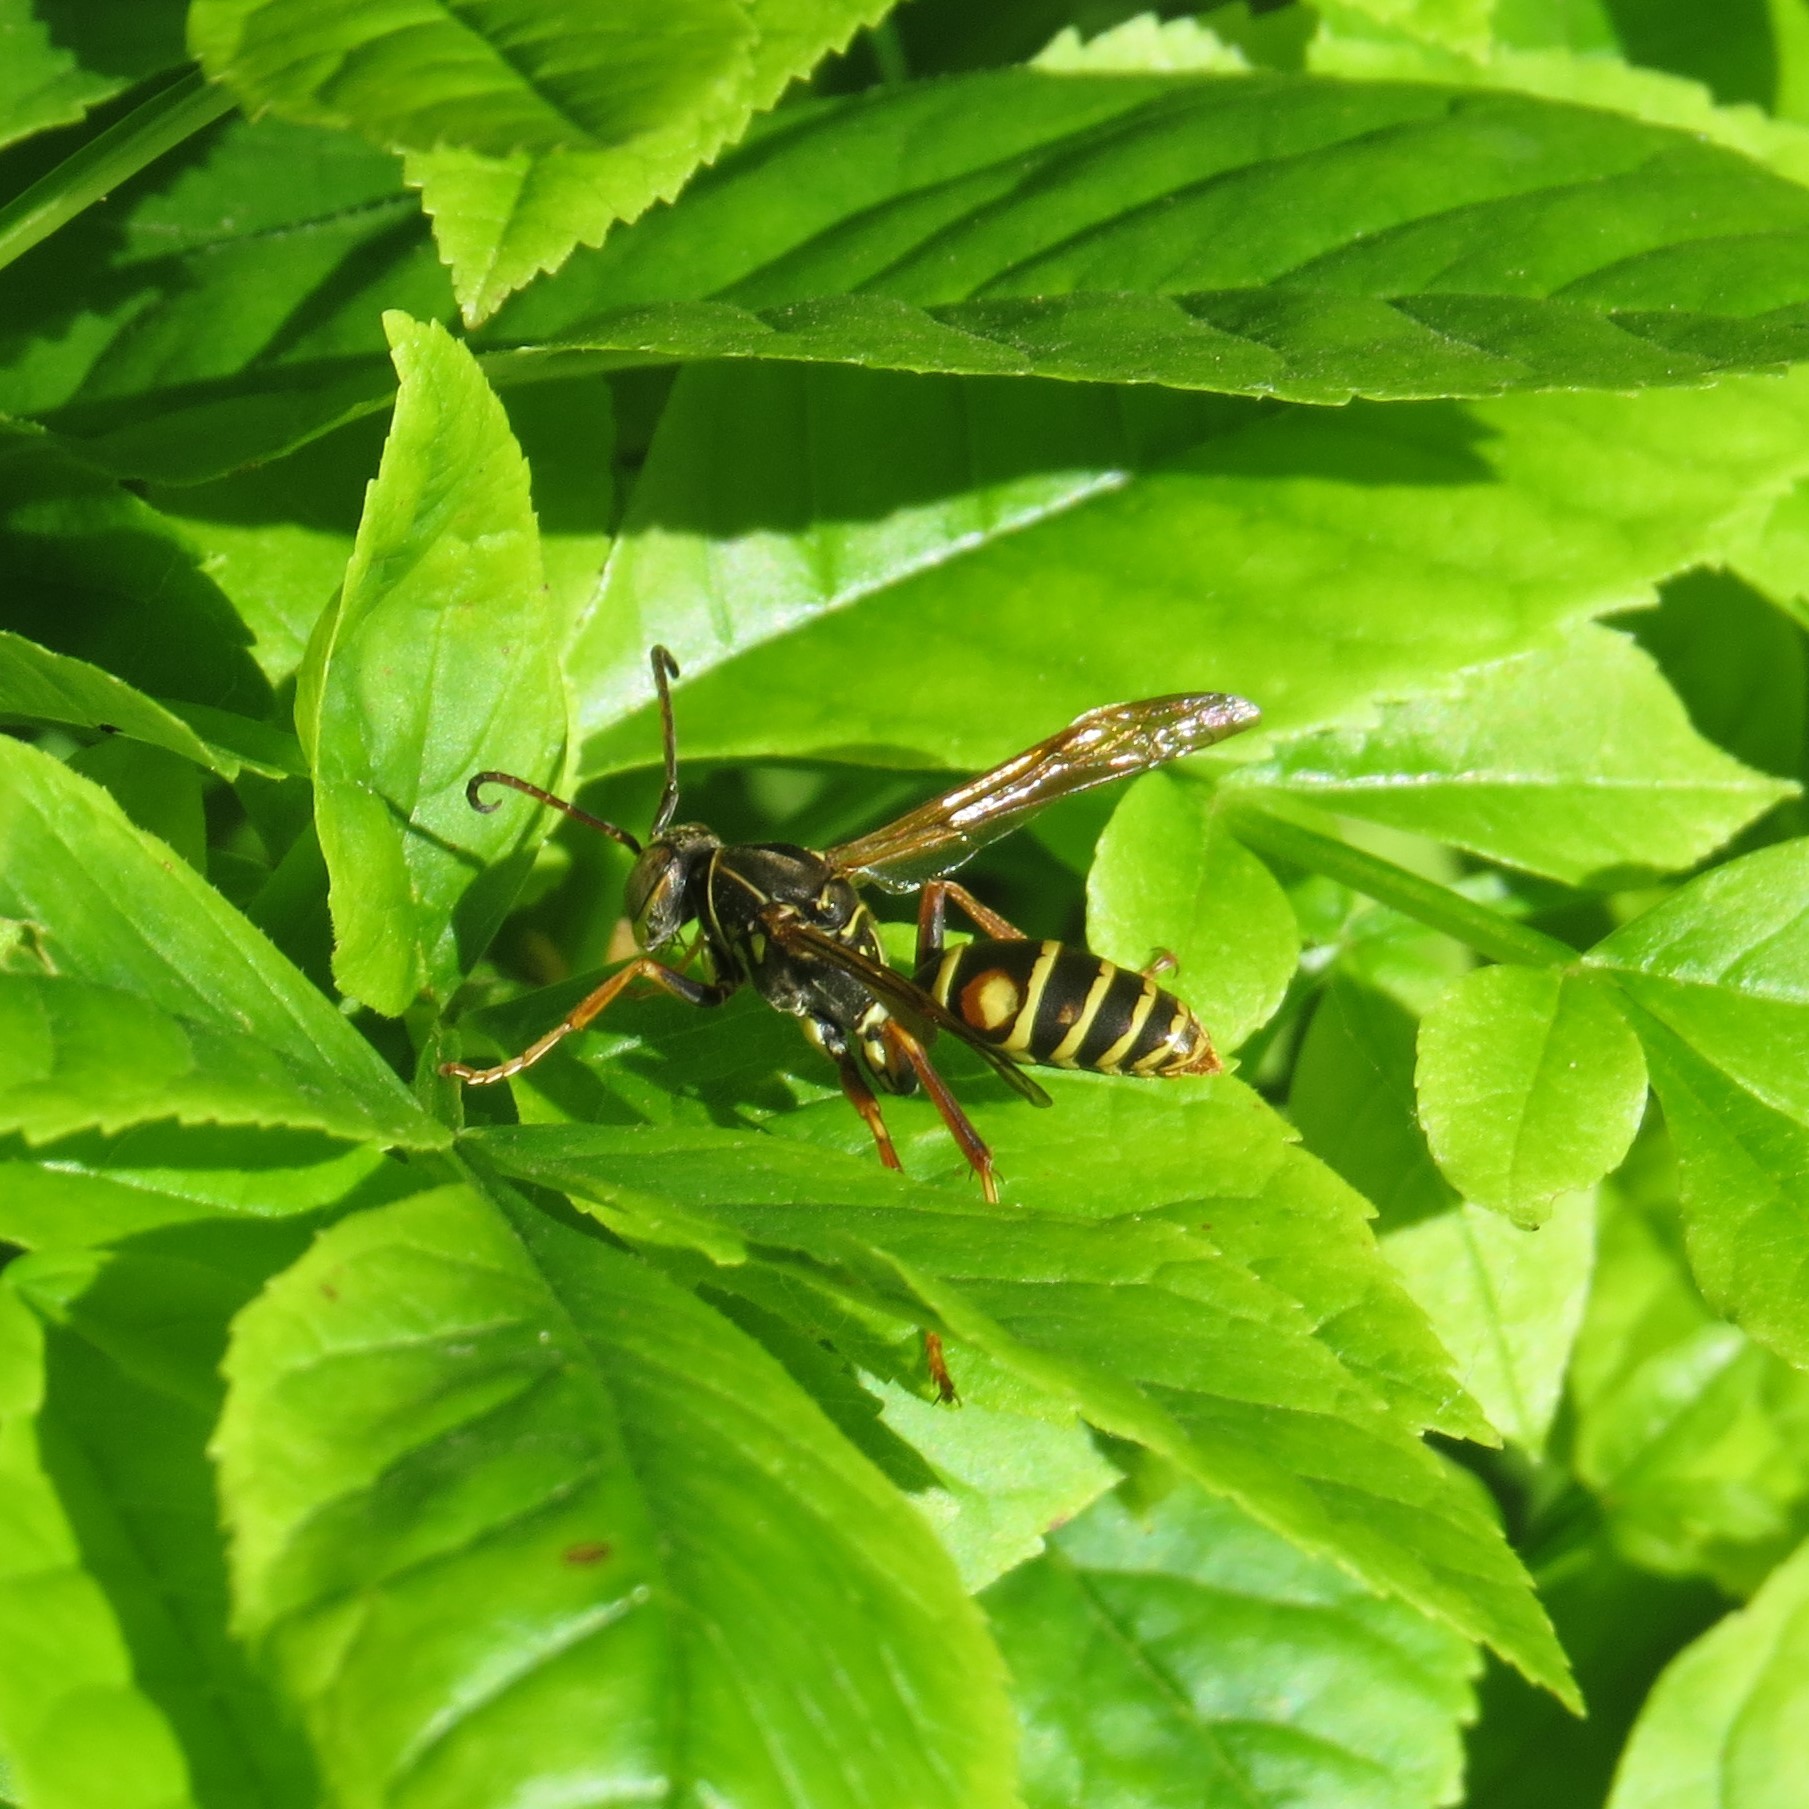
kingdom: Animalia
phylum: Arthropoda
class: Insecta
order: Hymenoptera
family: Eumenidae
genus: Polistes
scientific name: Polistes fuscatus
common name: Dark paper wasp
